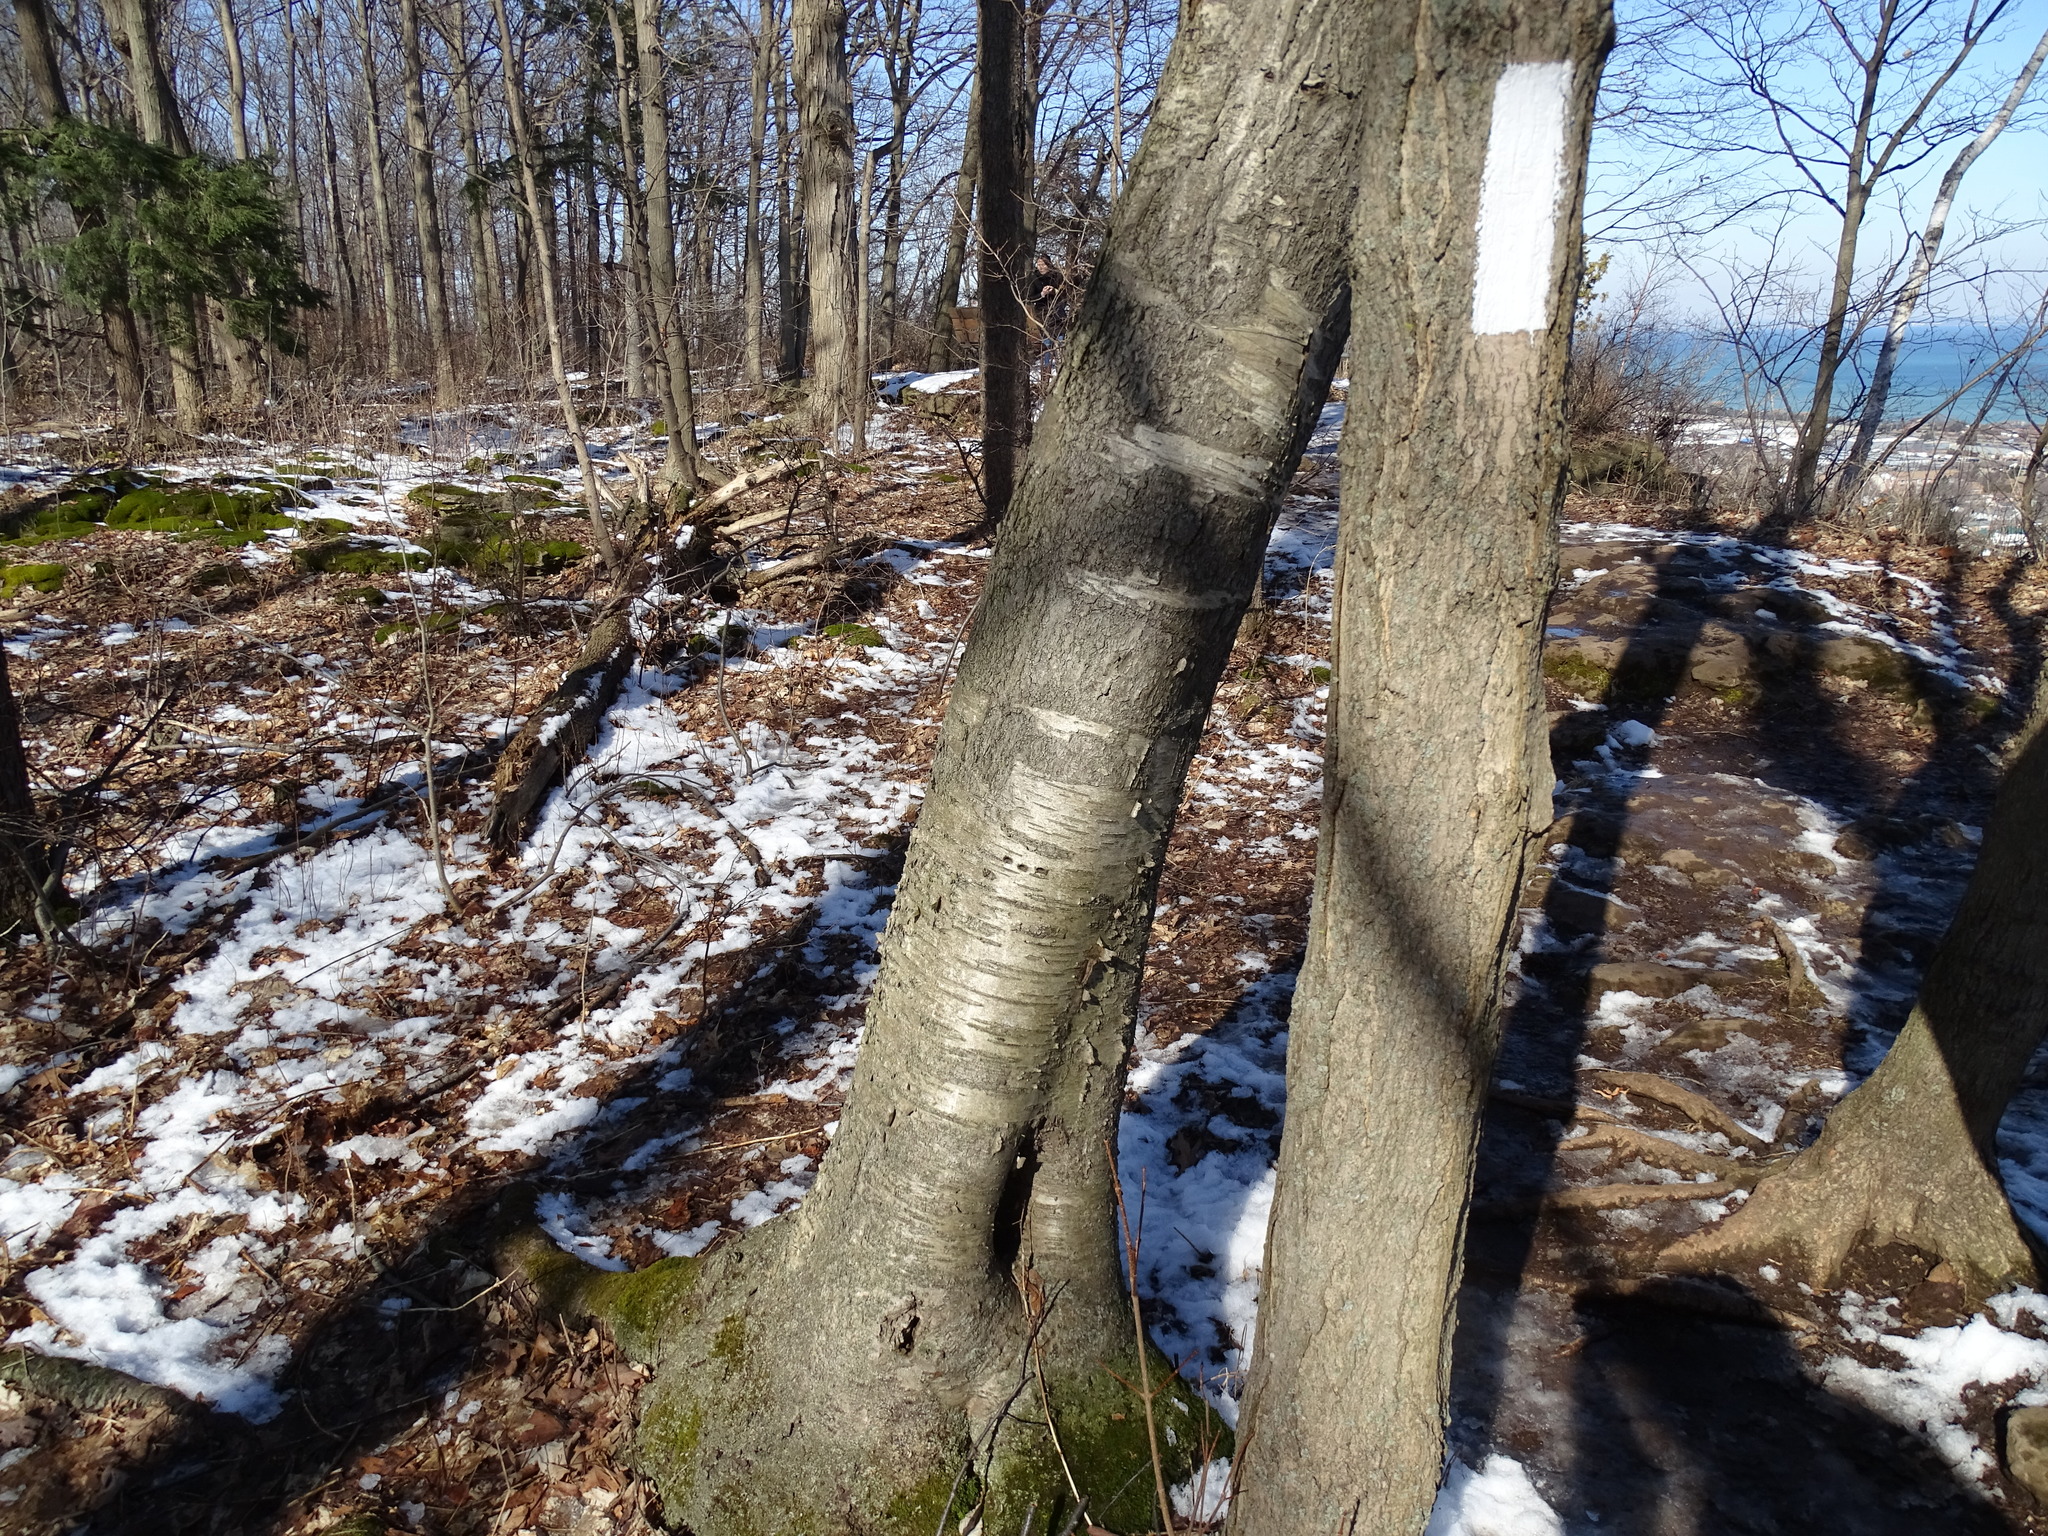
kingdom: Plantae
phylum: Tracheophyta
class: Magnoliopsida
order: Fagales
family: Betulaceae
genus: Betula
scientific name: Betula papyrifera
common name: Paper birch
